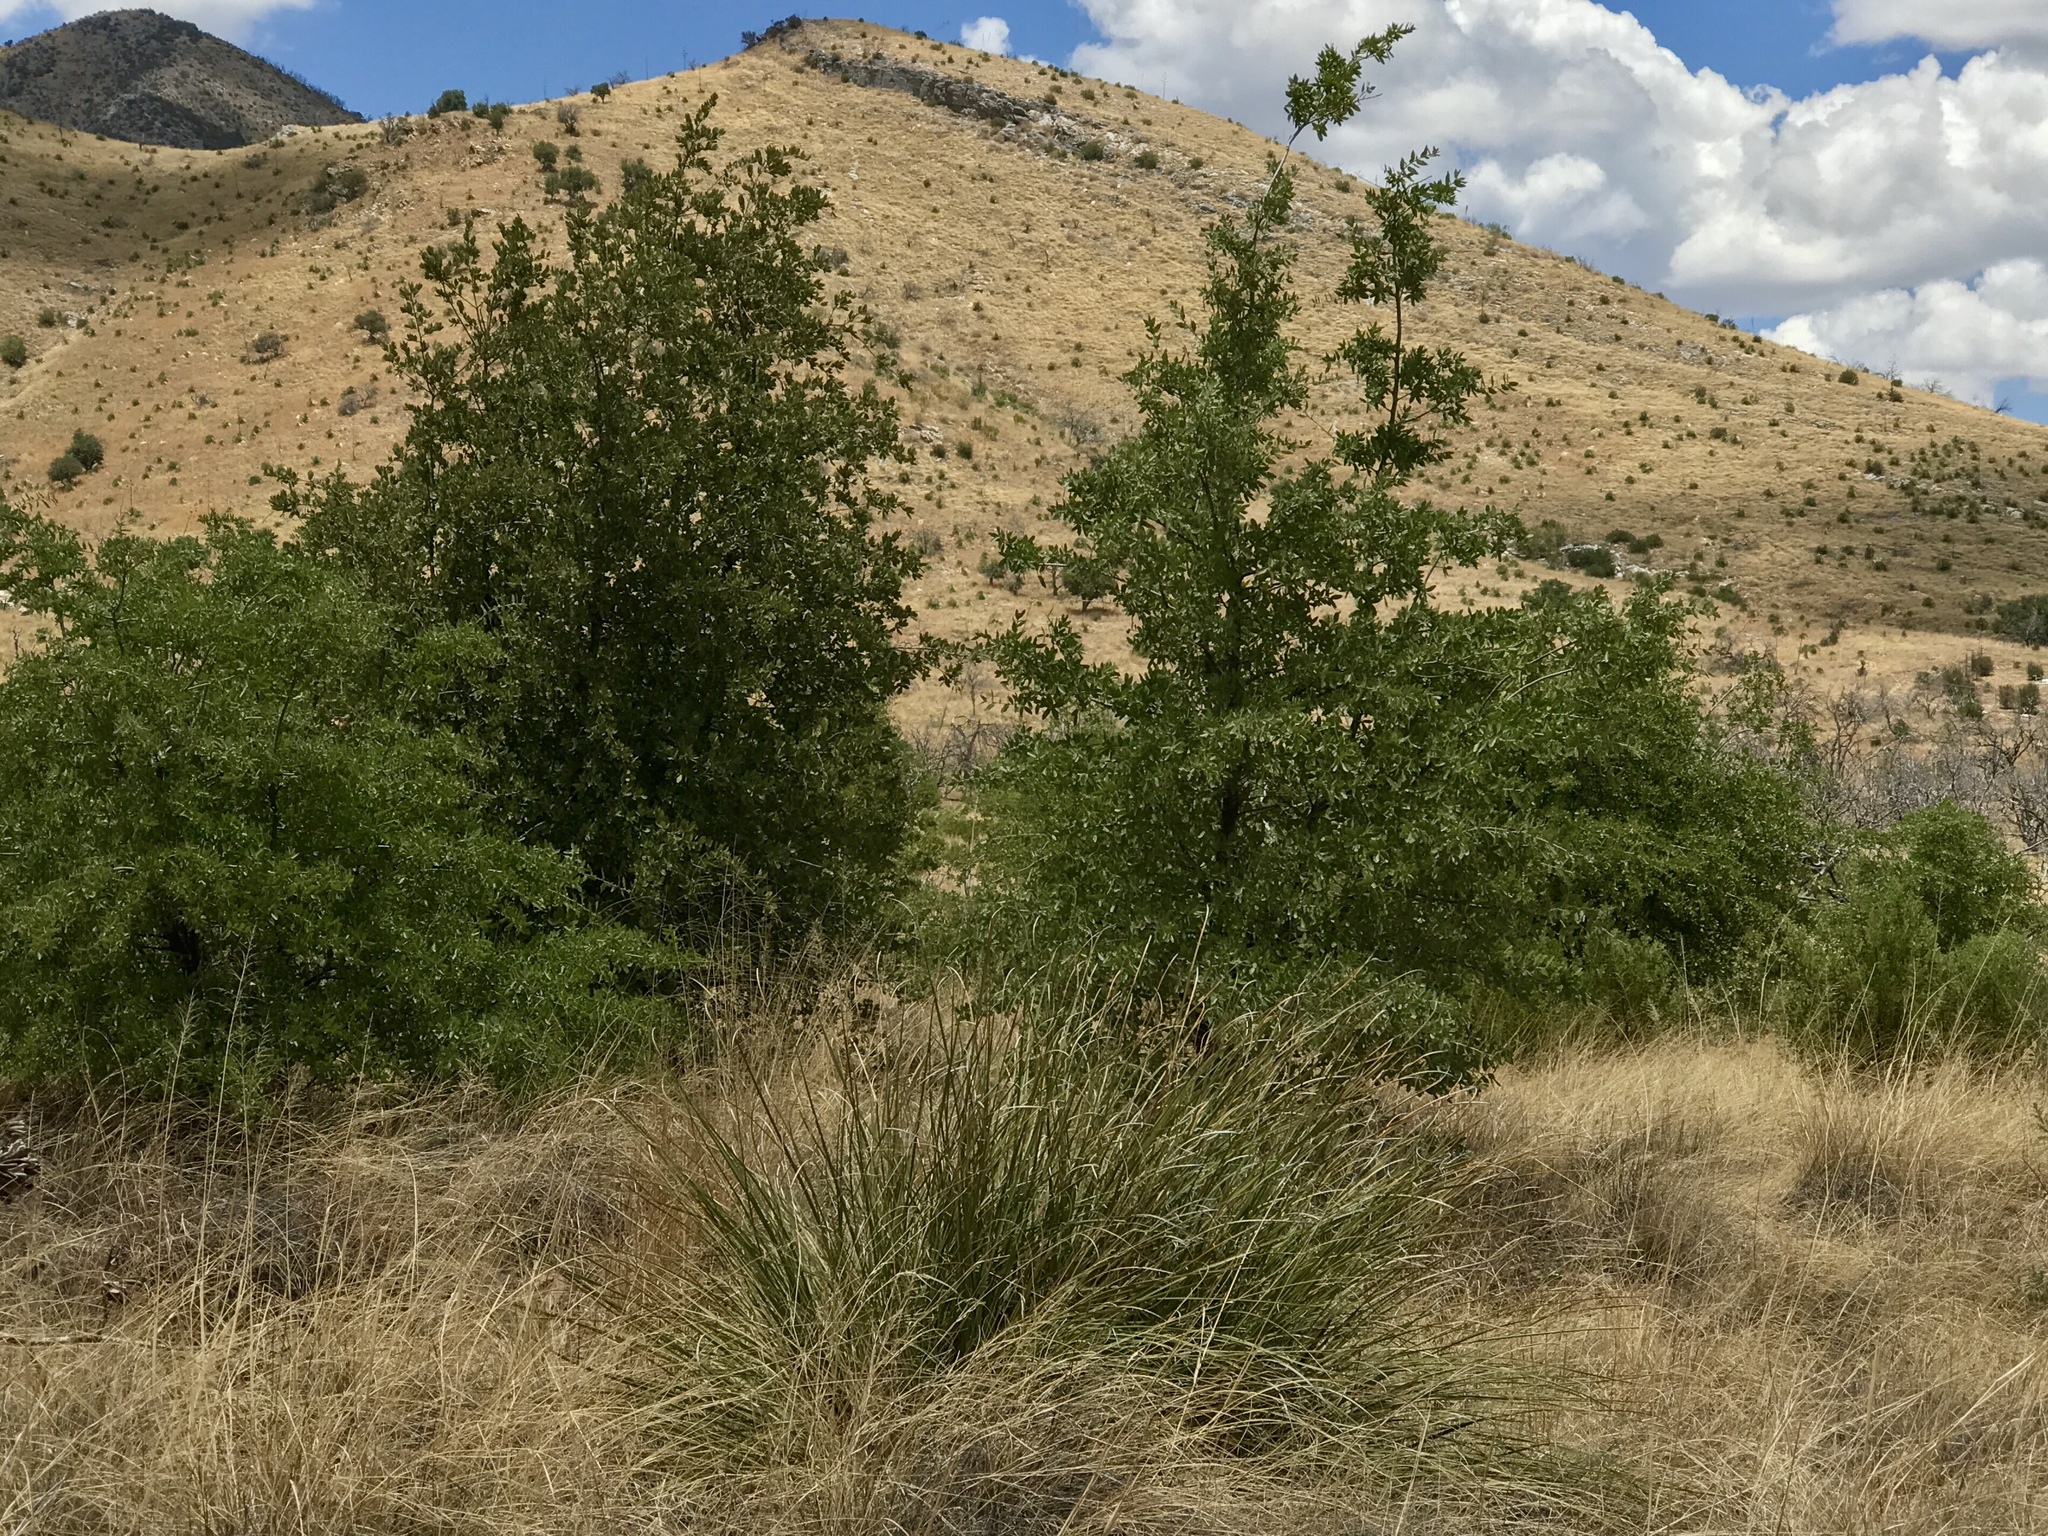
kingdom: Plantae
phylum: Tracheophyta
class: Liliopsida
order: Asparagales
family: Asparagaceae
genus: Nolina
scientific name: Nolina microcarpa
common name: Bear-grass
